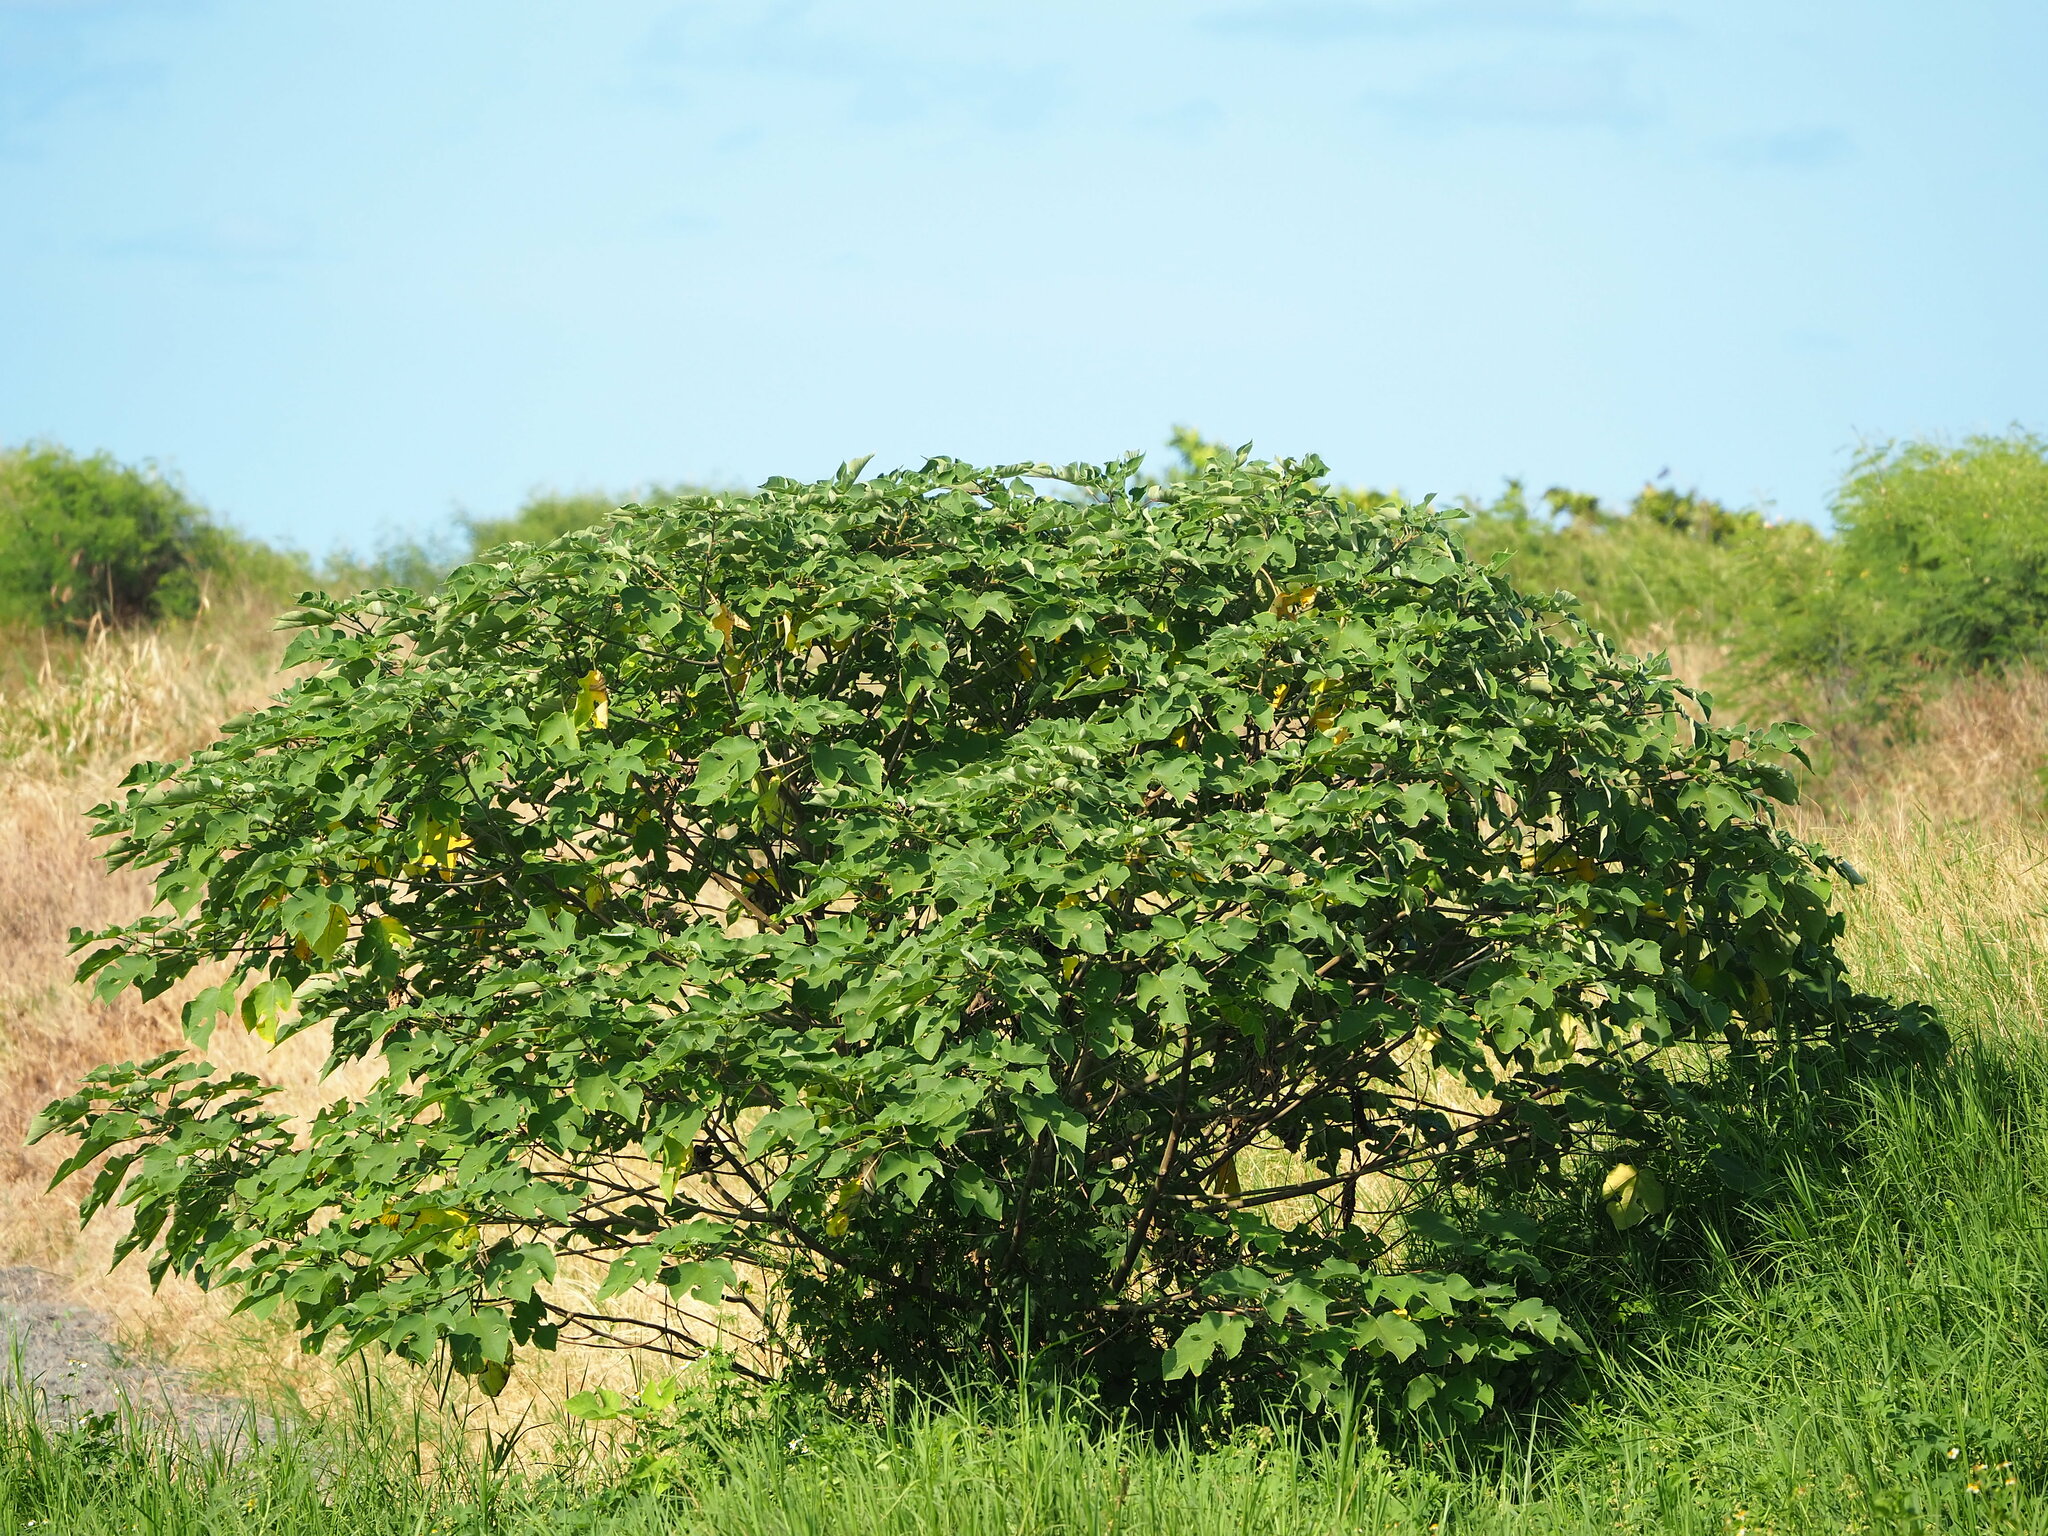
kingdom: Plantae
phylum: Tracheophyta
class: Magnoliopsida
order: Rosales
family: Moraceae
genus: Broussonetia
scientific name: Broussonetia papyrifera
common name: Paper mulberry
